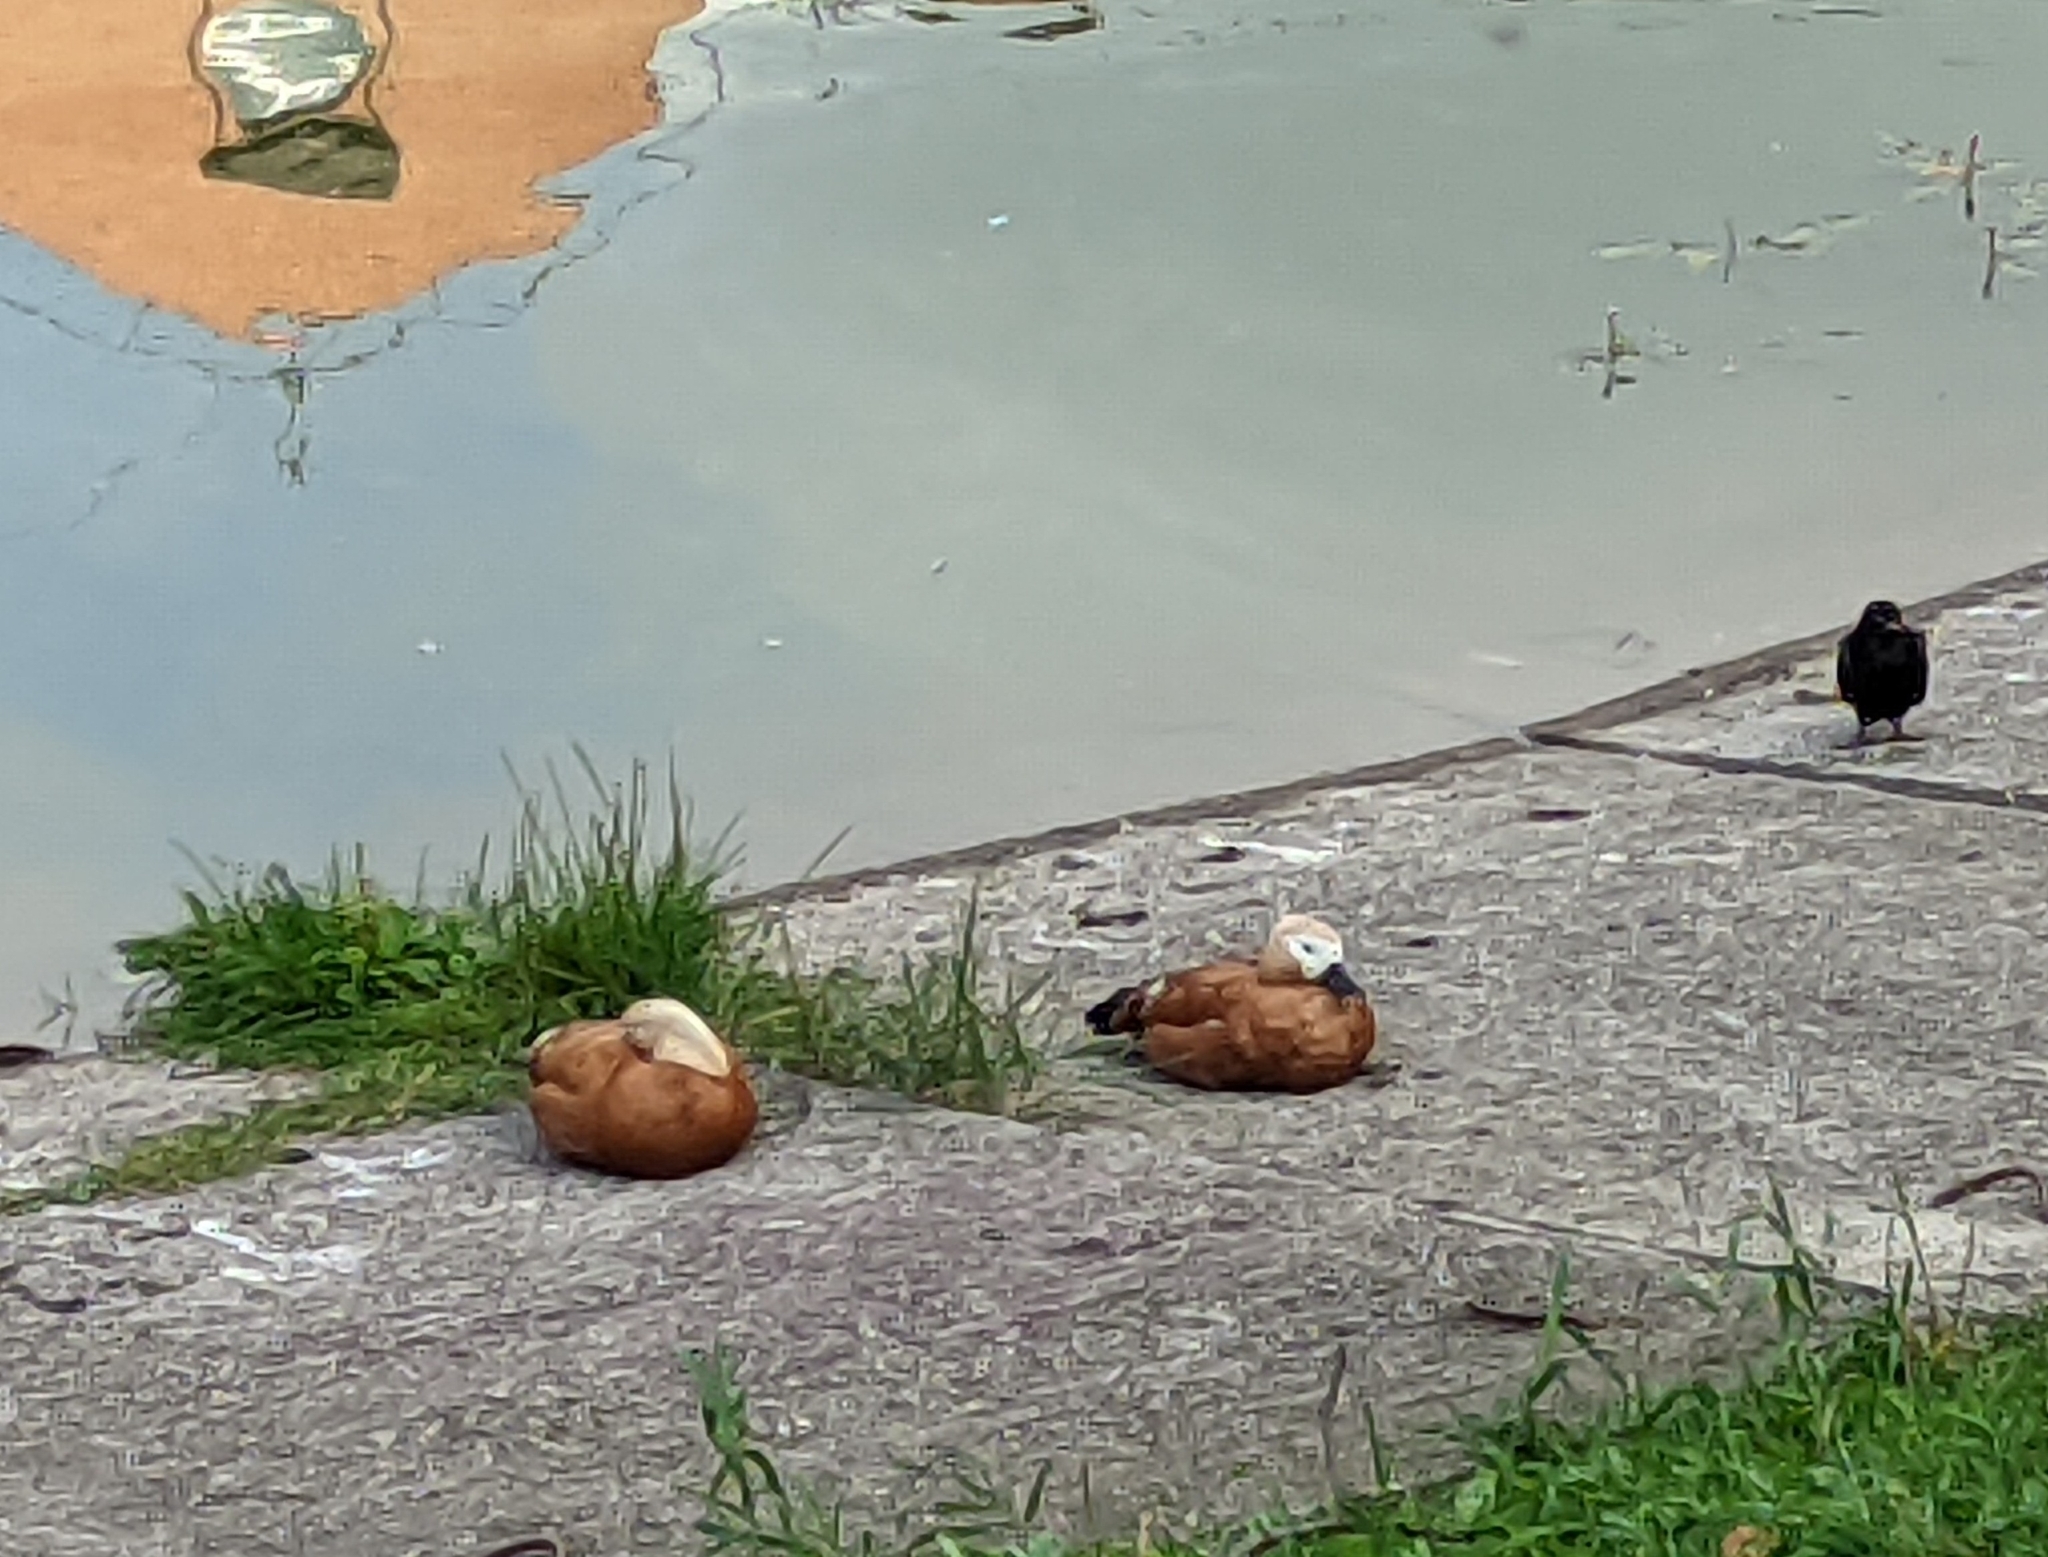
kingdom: Animalia
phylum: Chordata
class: Aves
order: Anseriformes
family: Anatidae
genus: Tadorna
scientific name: Tadorna ferruginea
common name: Ruddy shelduck
